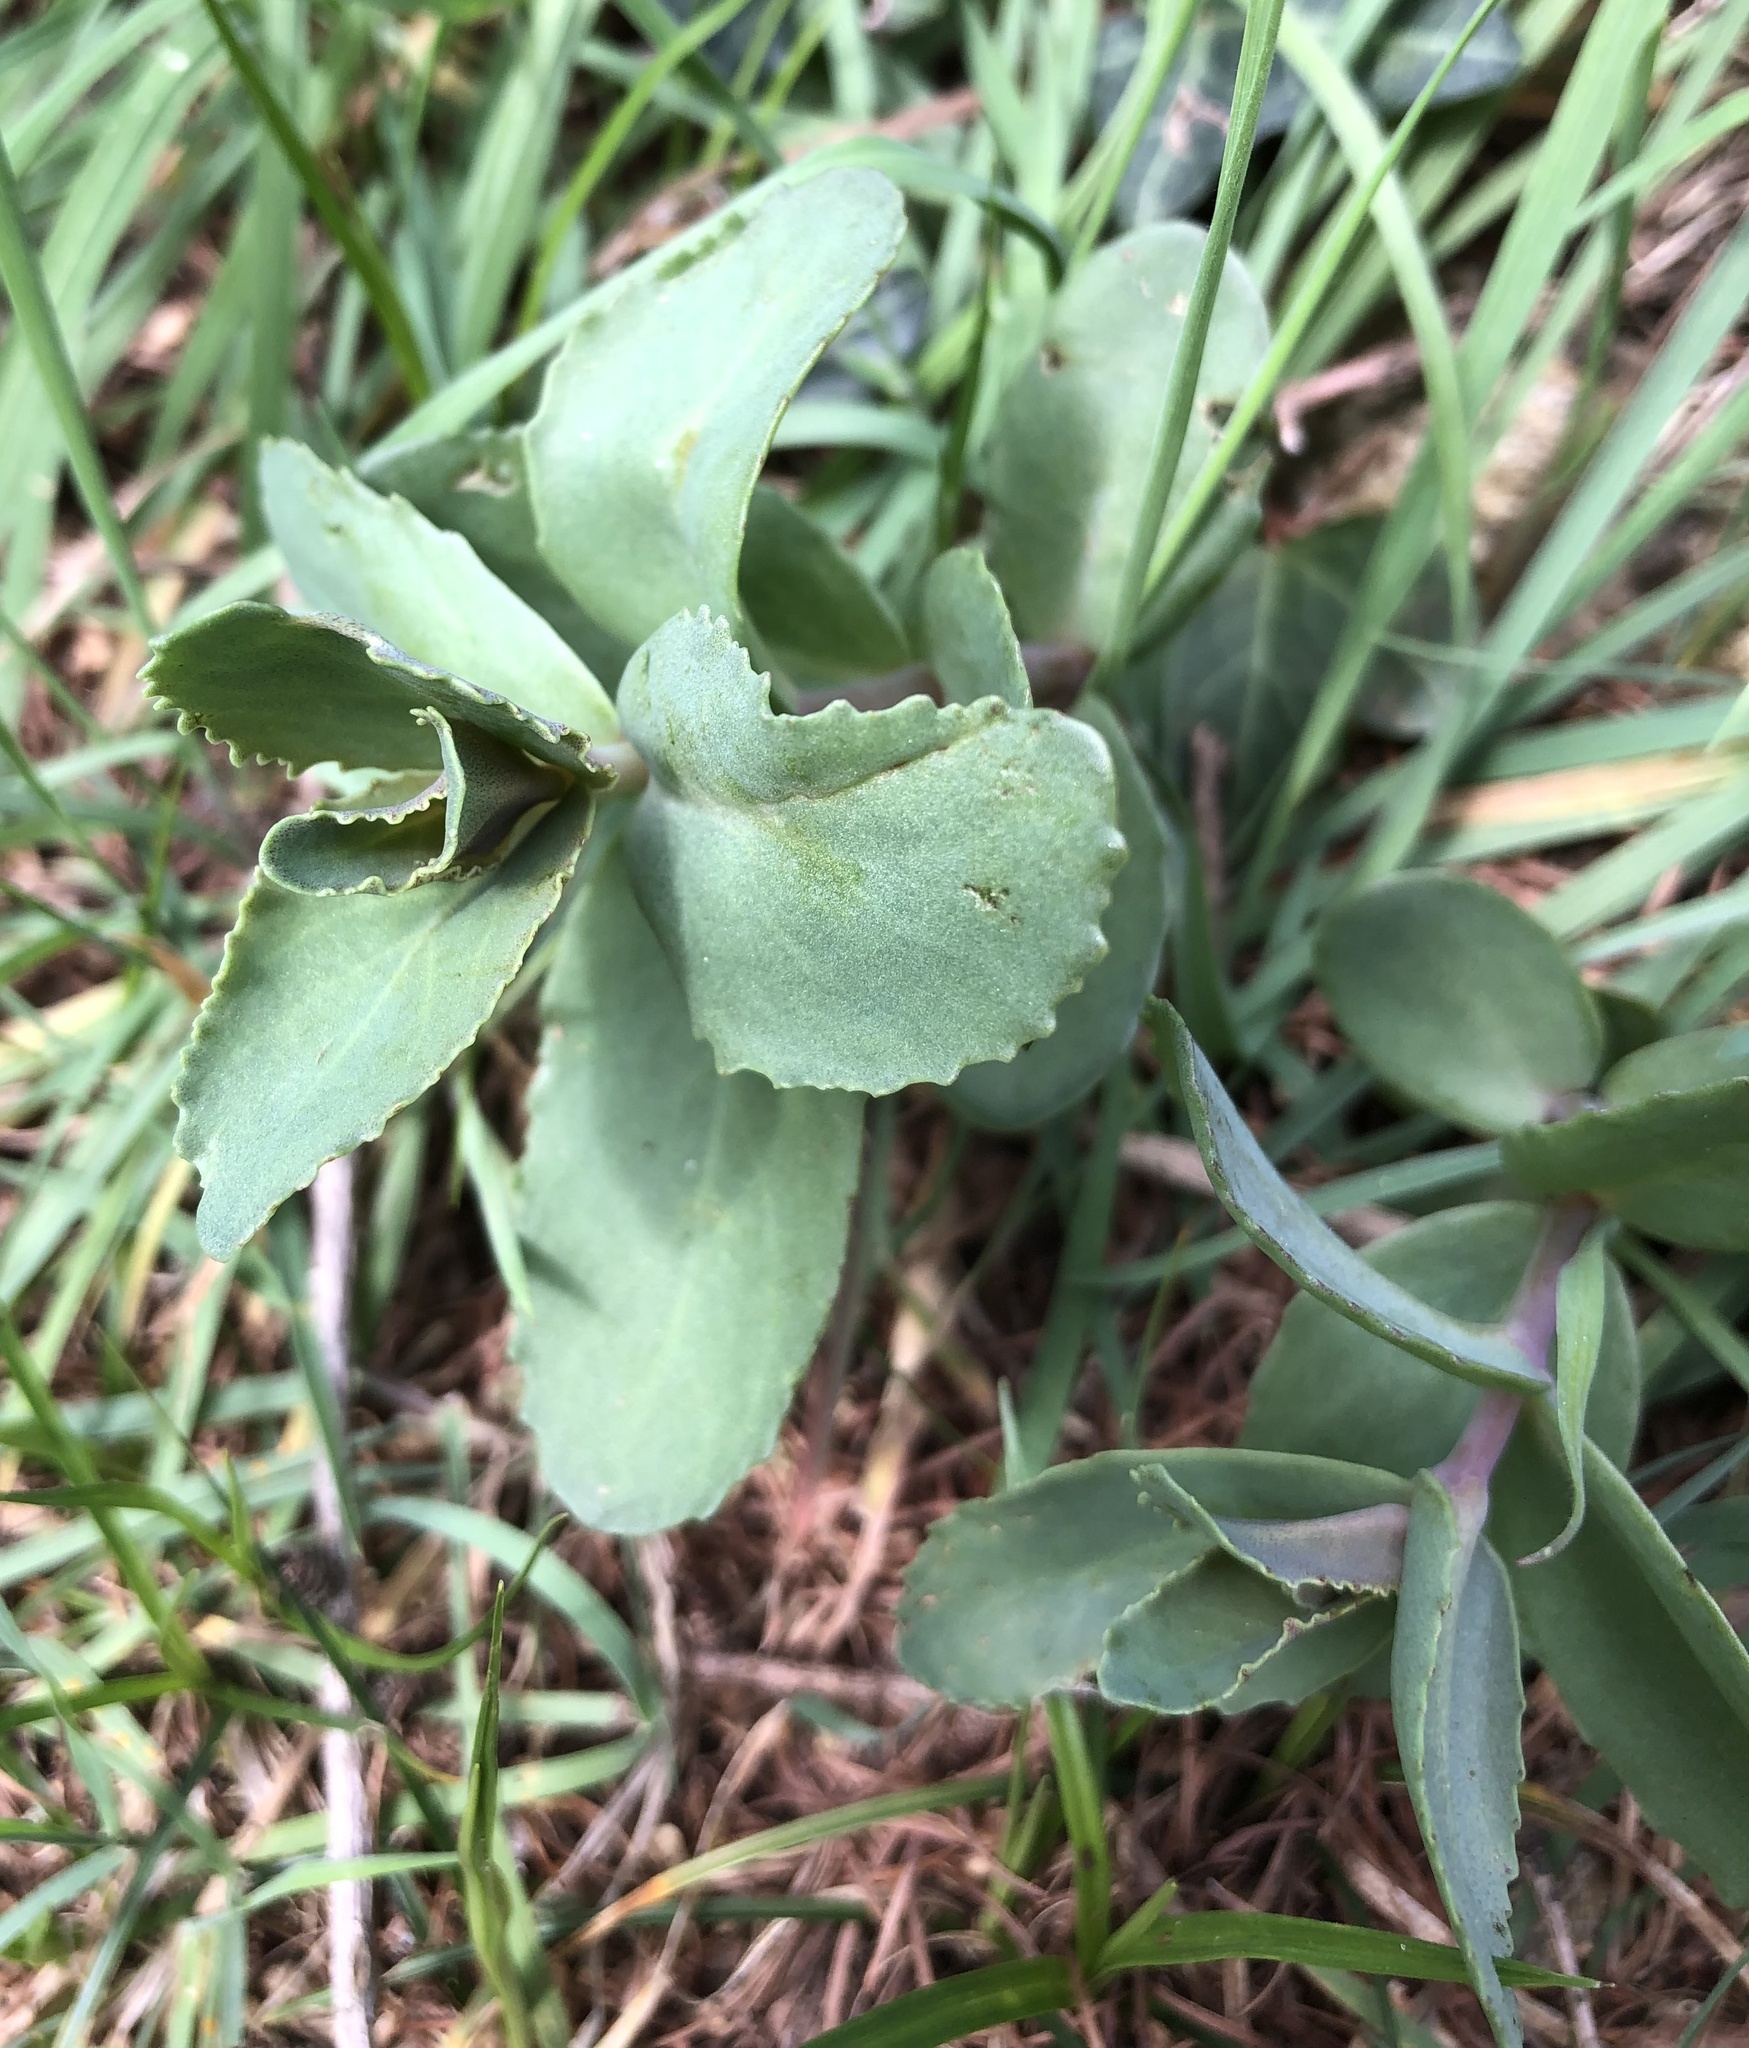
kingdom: Plantae
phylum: Tracheophyta
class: Magnoliopsida
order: Saxifragales
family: Crassulaceae
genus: Hylotelephium
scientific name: Hylotelephium maximum
